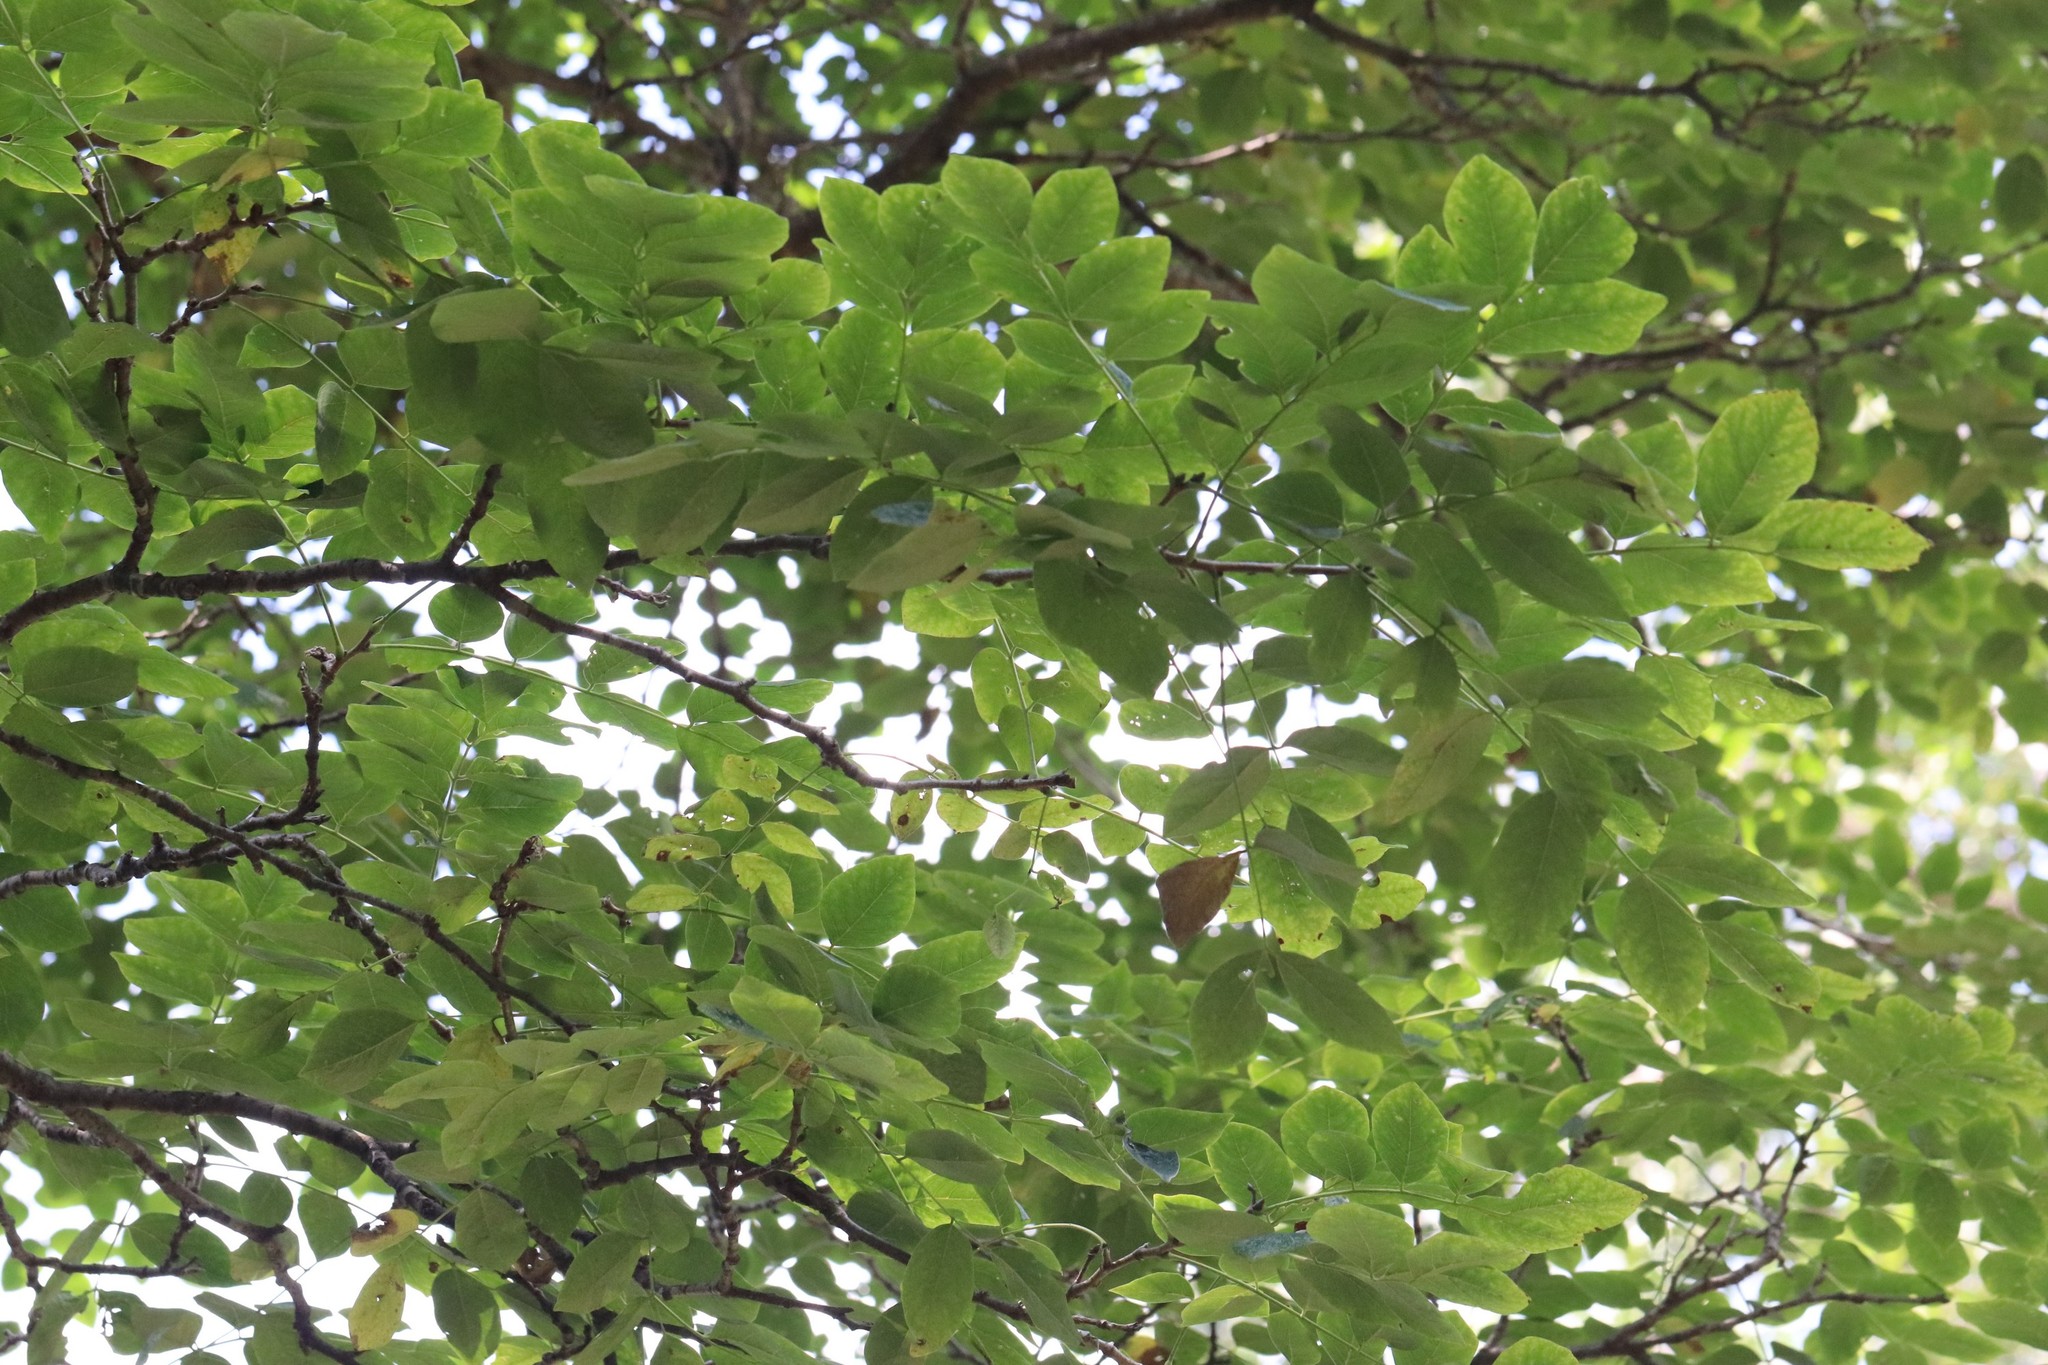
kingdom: Plantae
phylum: Tracheophyta
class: Magnoliopsida
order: Fabales
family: Fabaceae
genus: Maackia
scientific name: Maackia amurensis
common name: Amur maackia
